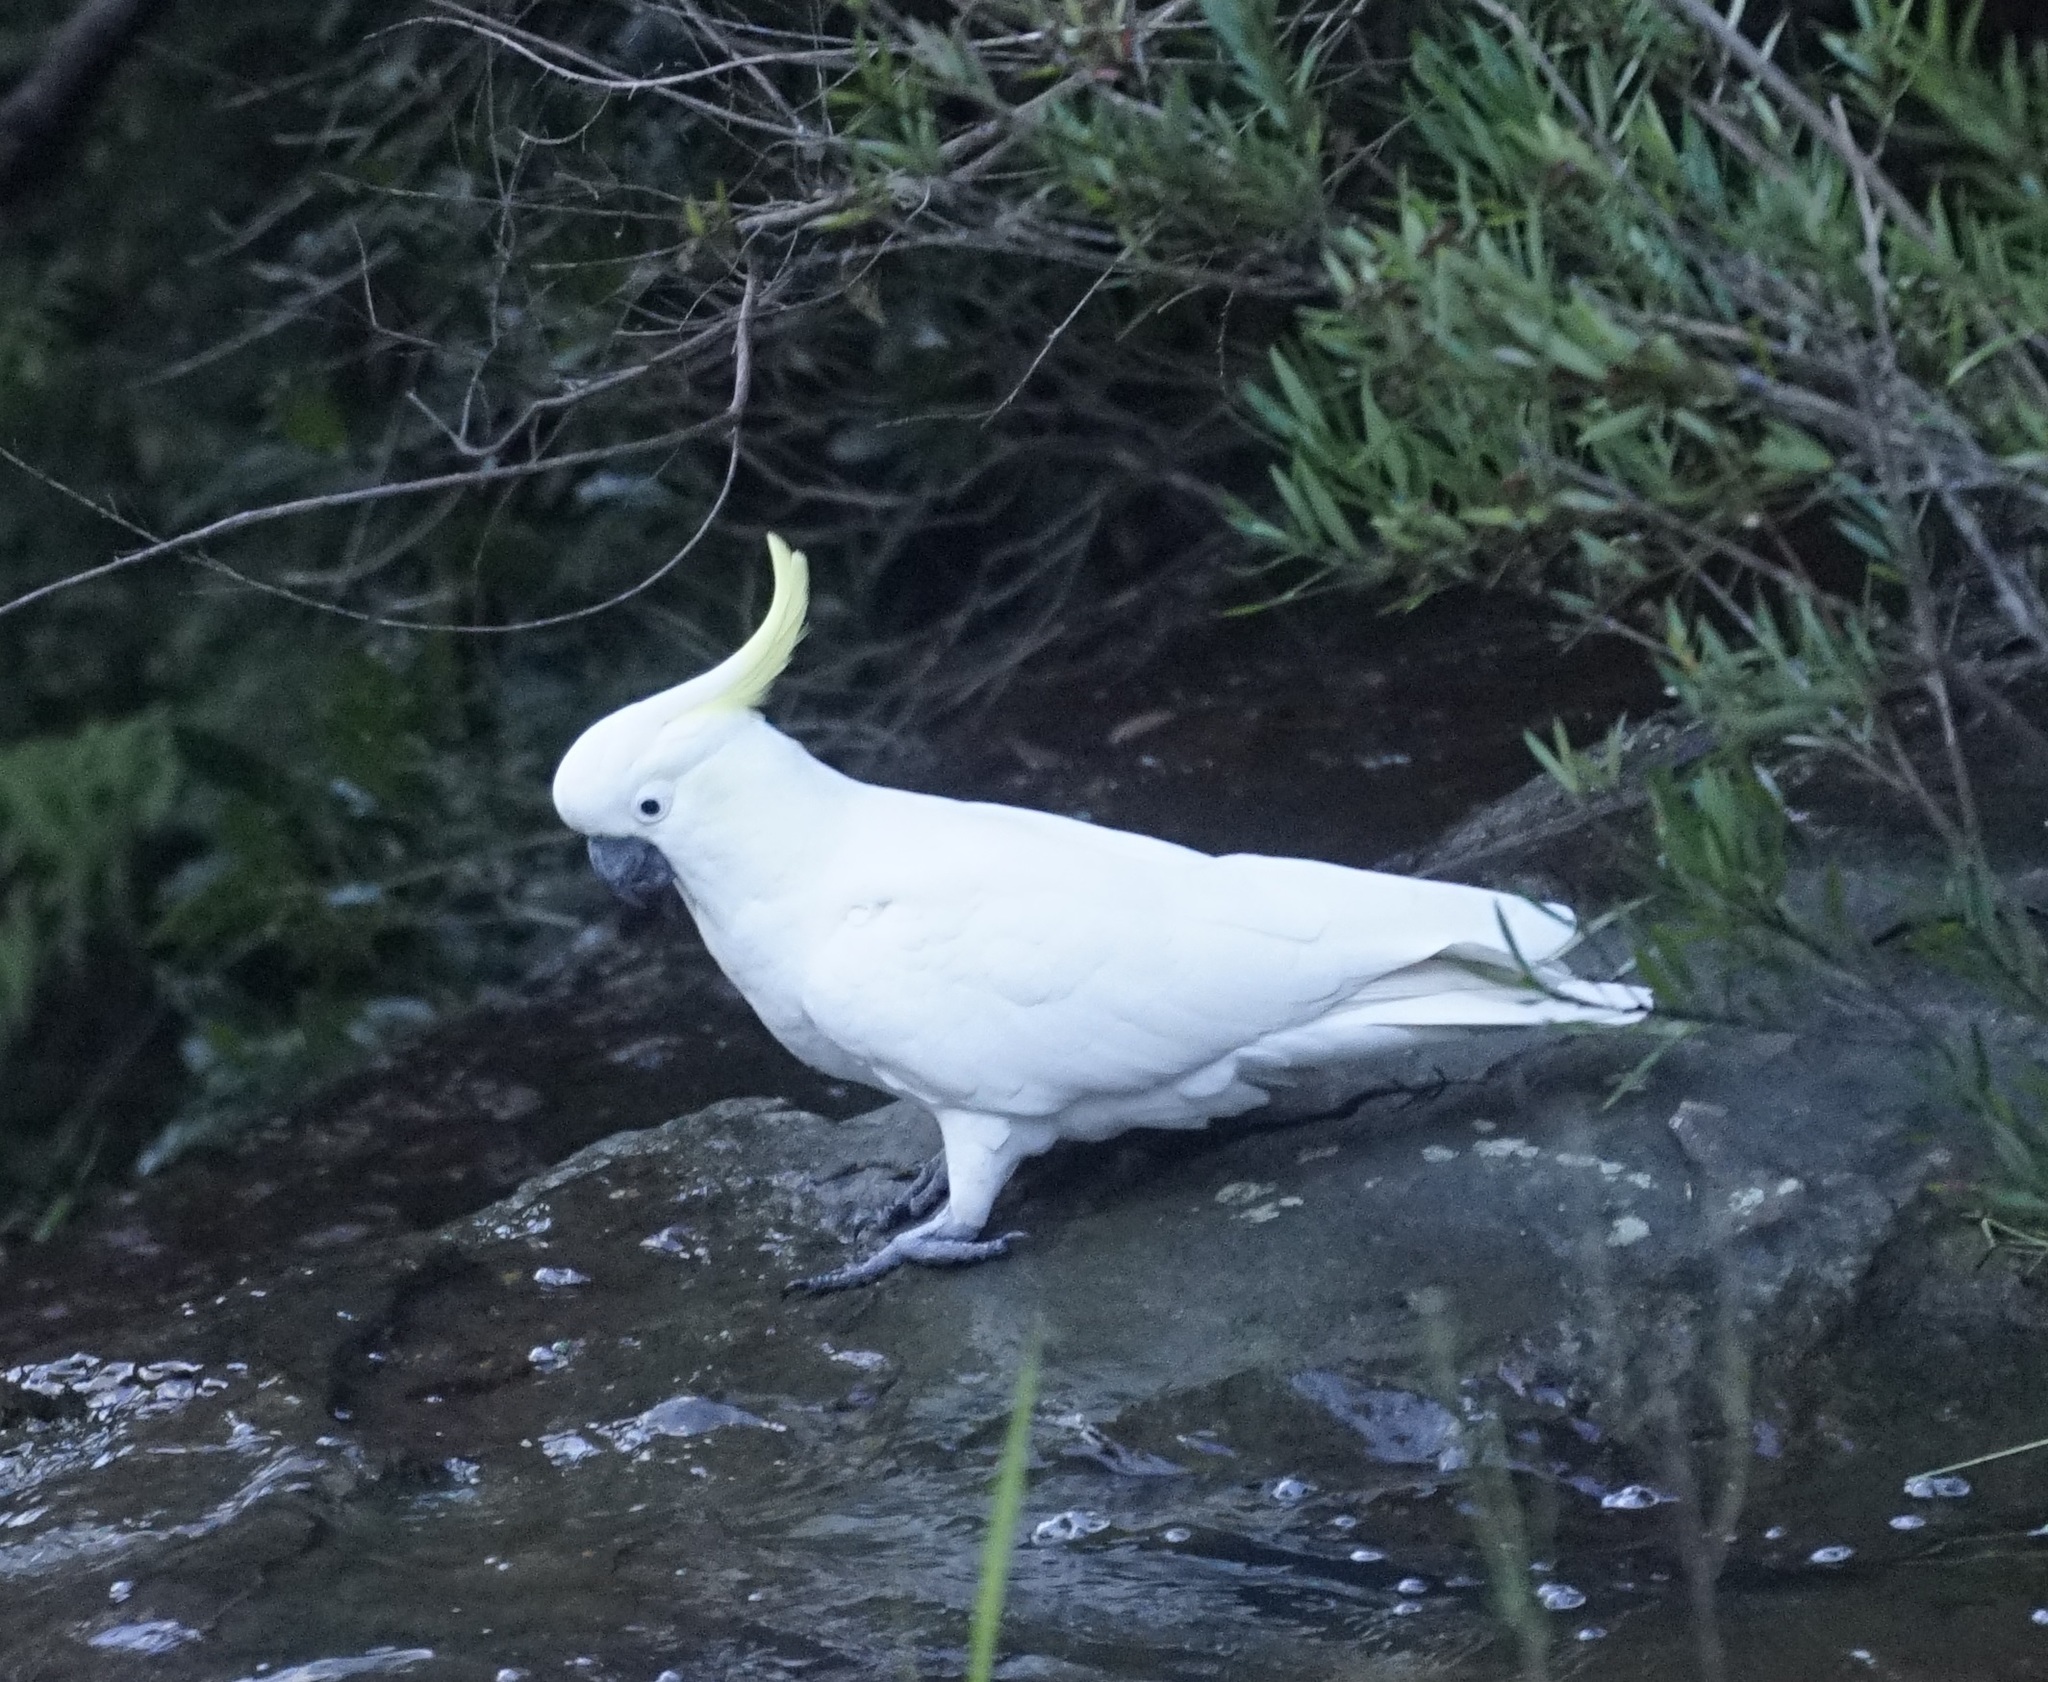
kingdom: Animalia
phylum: Chordata
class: Aves
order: Psittaciformes
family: Psittacidae
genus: Cacatua
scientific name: Cacatua galerita
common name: Sulphur-crested cockatoo
